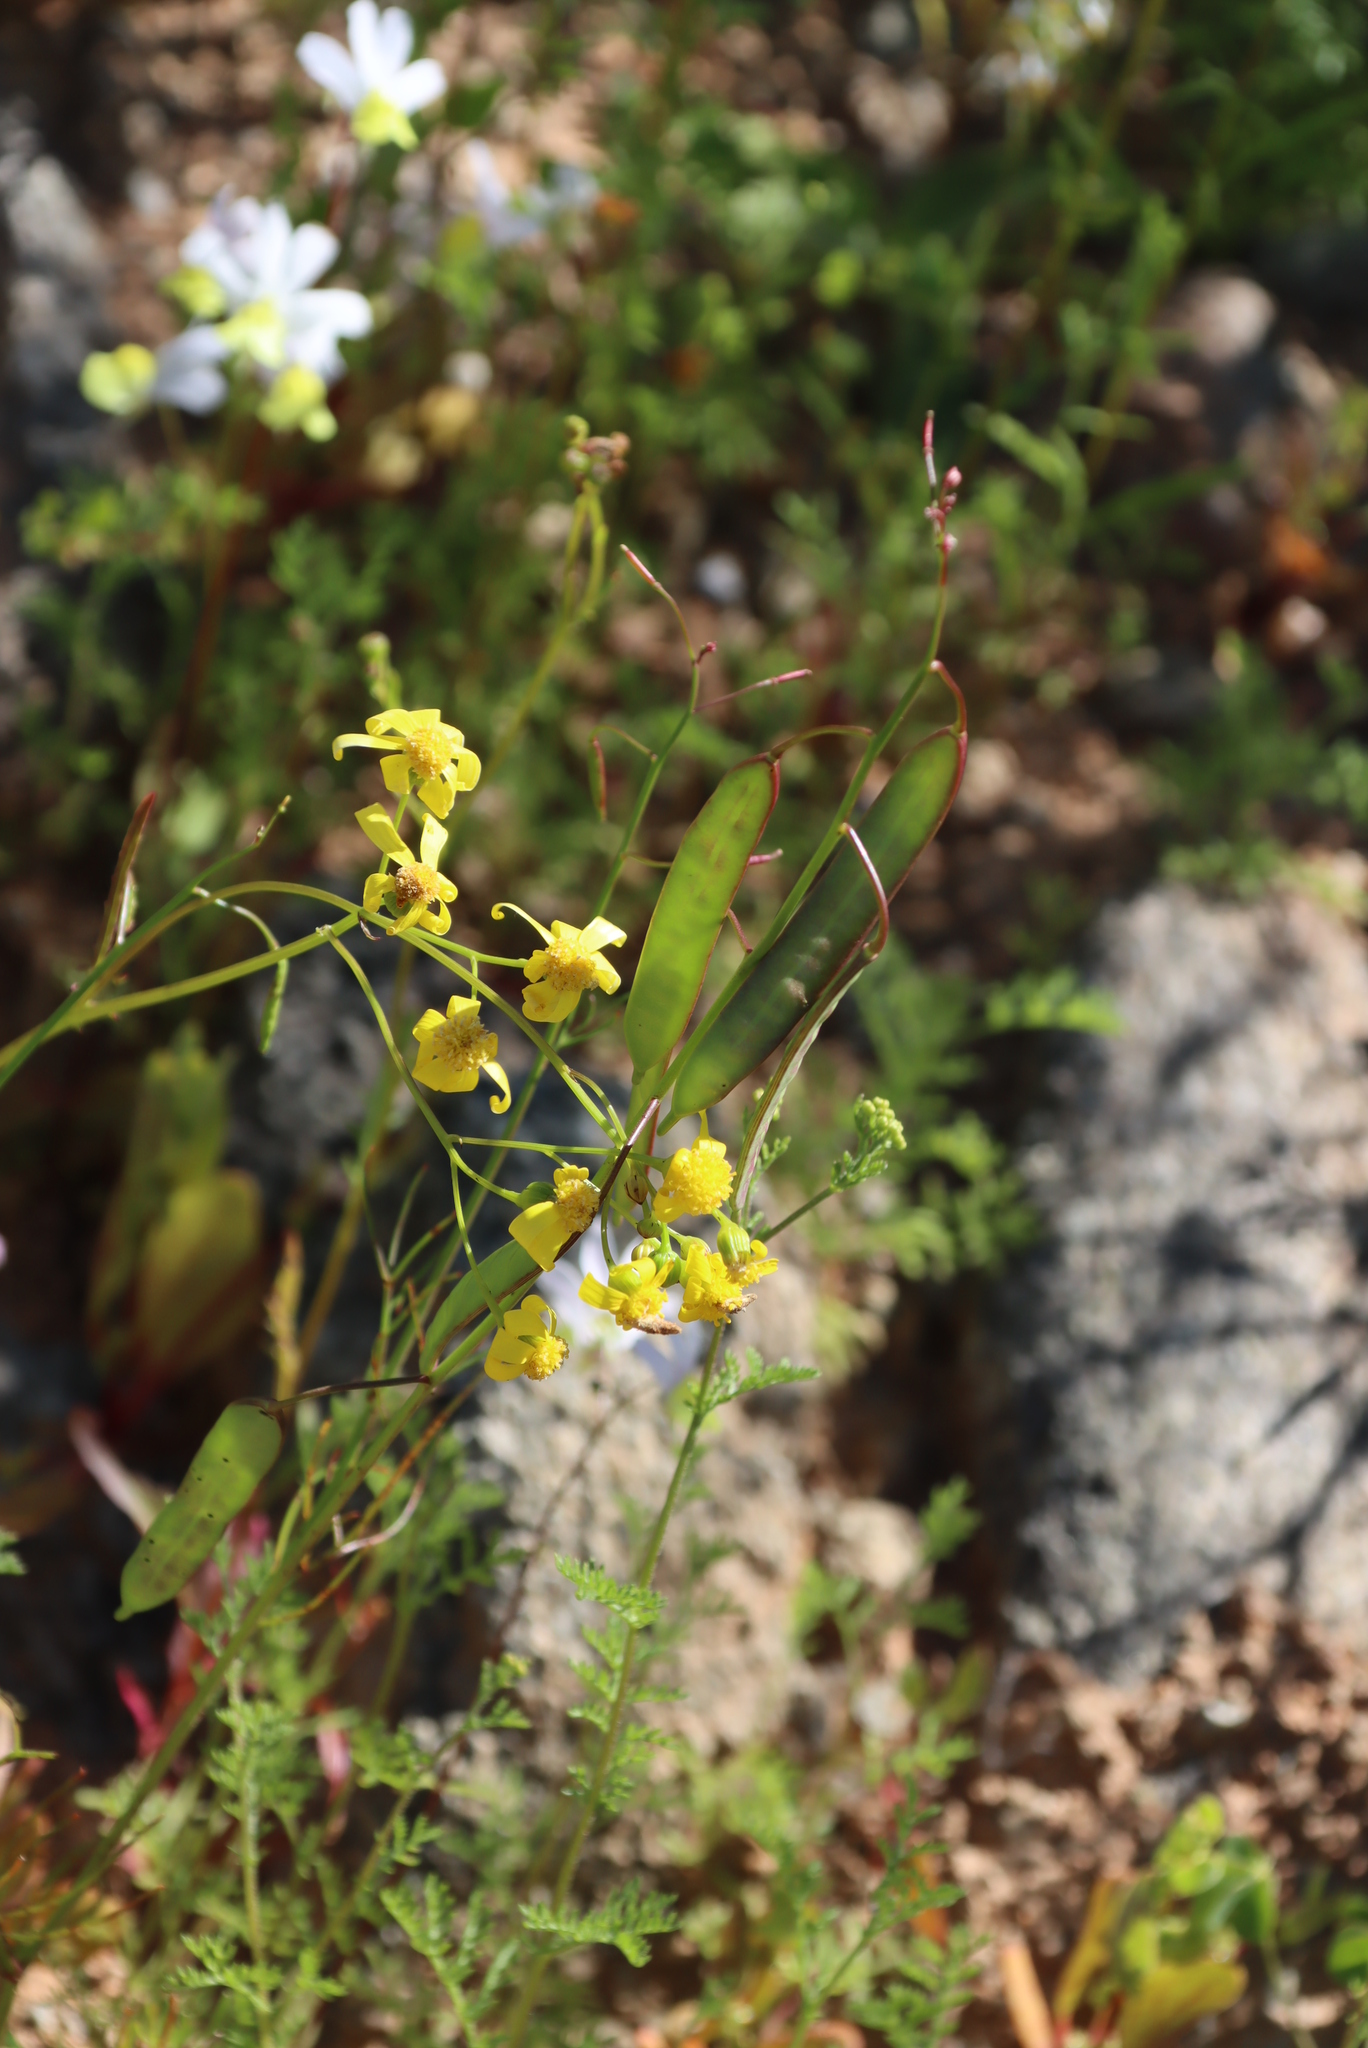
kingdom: Plantae
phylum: Tracheophyta
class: Magnoliopsida
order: Brassicales
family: Brassicaceae
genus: Heliophila
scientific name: Heliophila thunbergii
